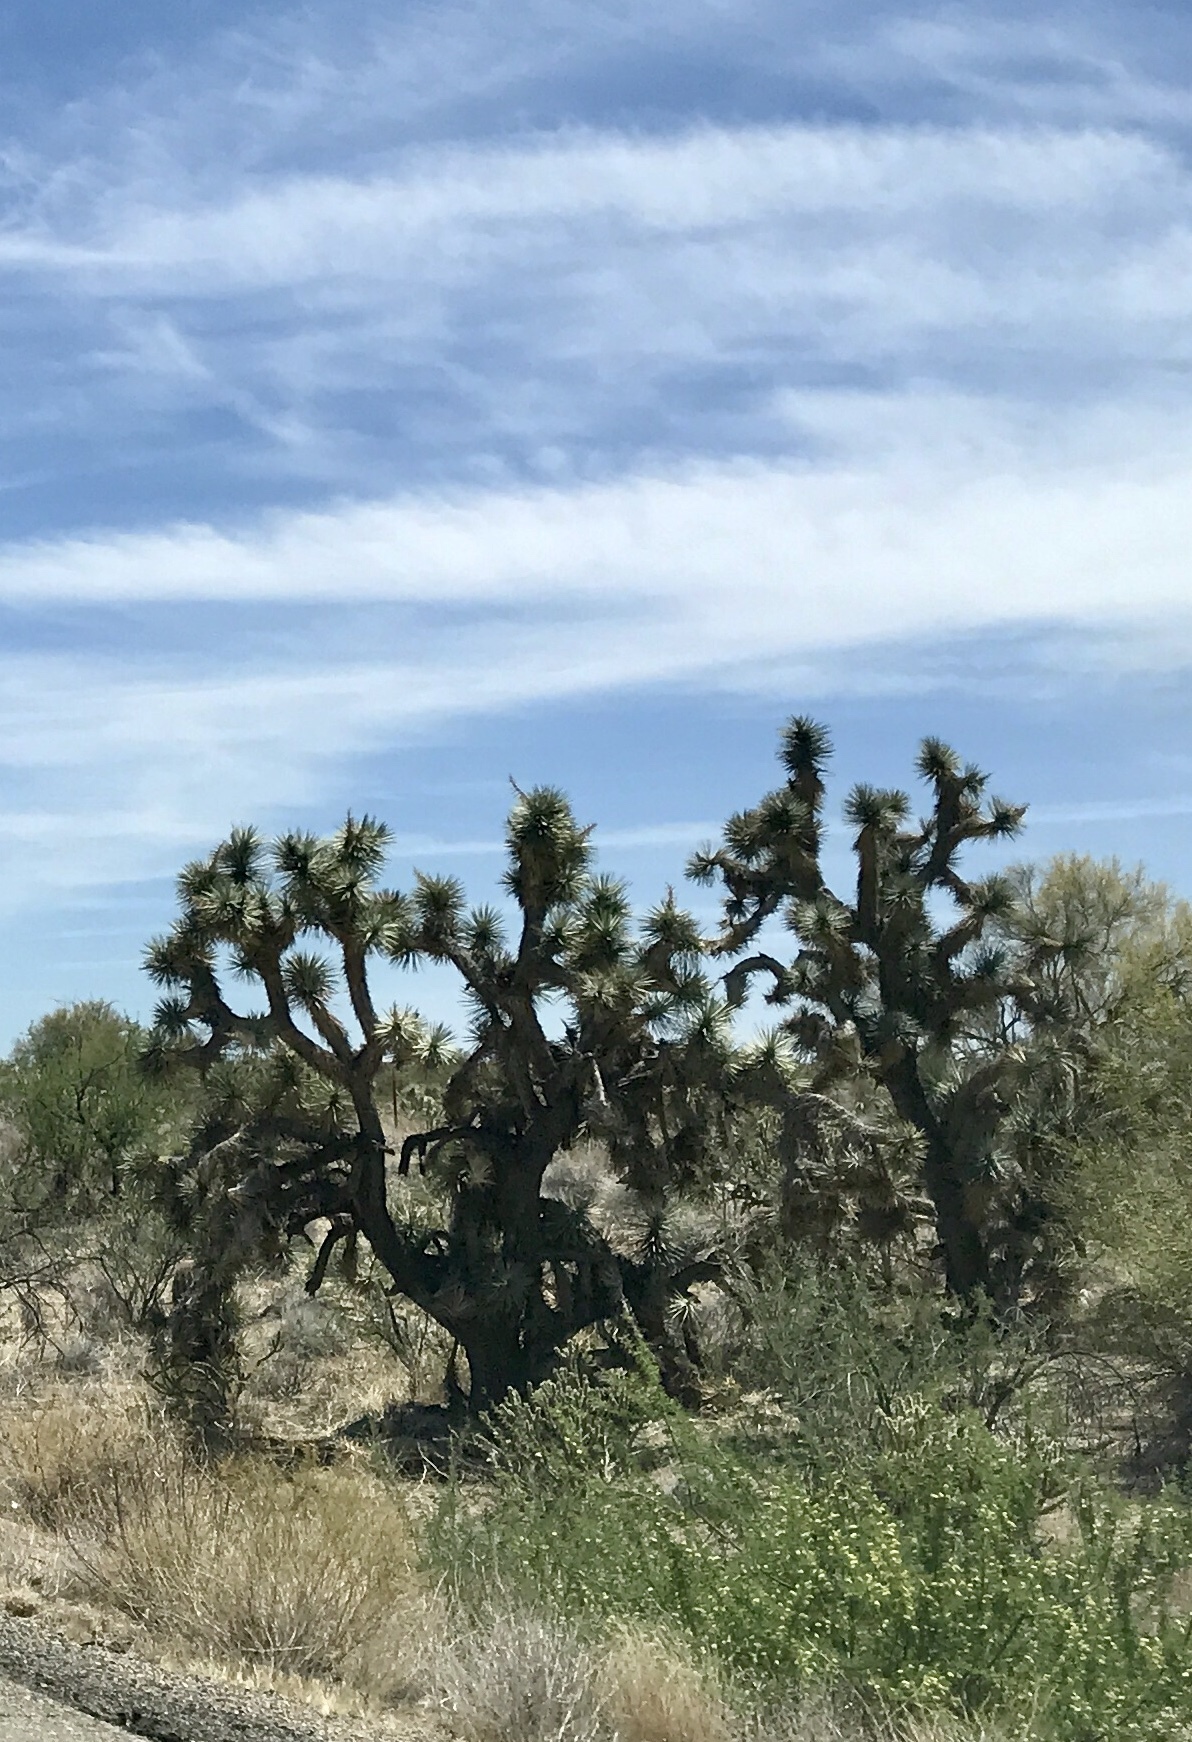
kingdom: Plantae
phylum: Tracheophyta
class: Liliopsida
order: Asparagales
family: Asparagaceae
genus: Yucca
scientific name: Yucca brevifolia
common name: Joshua tree
